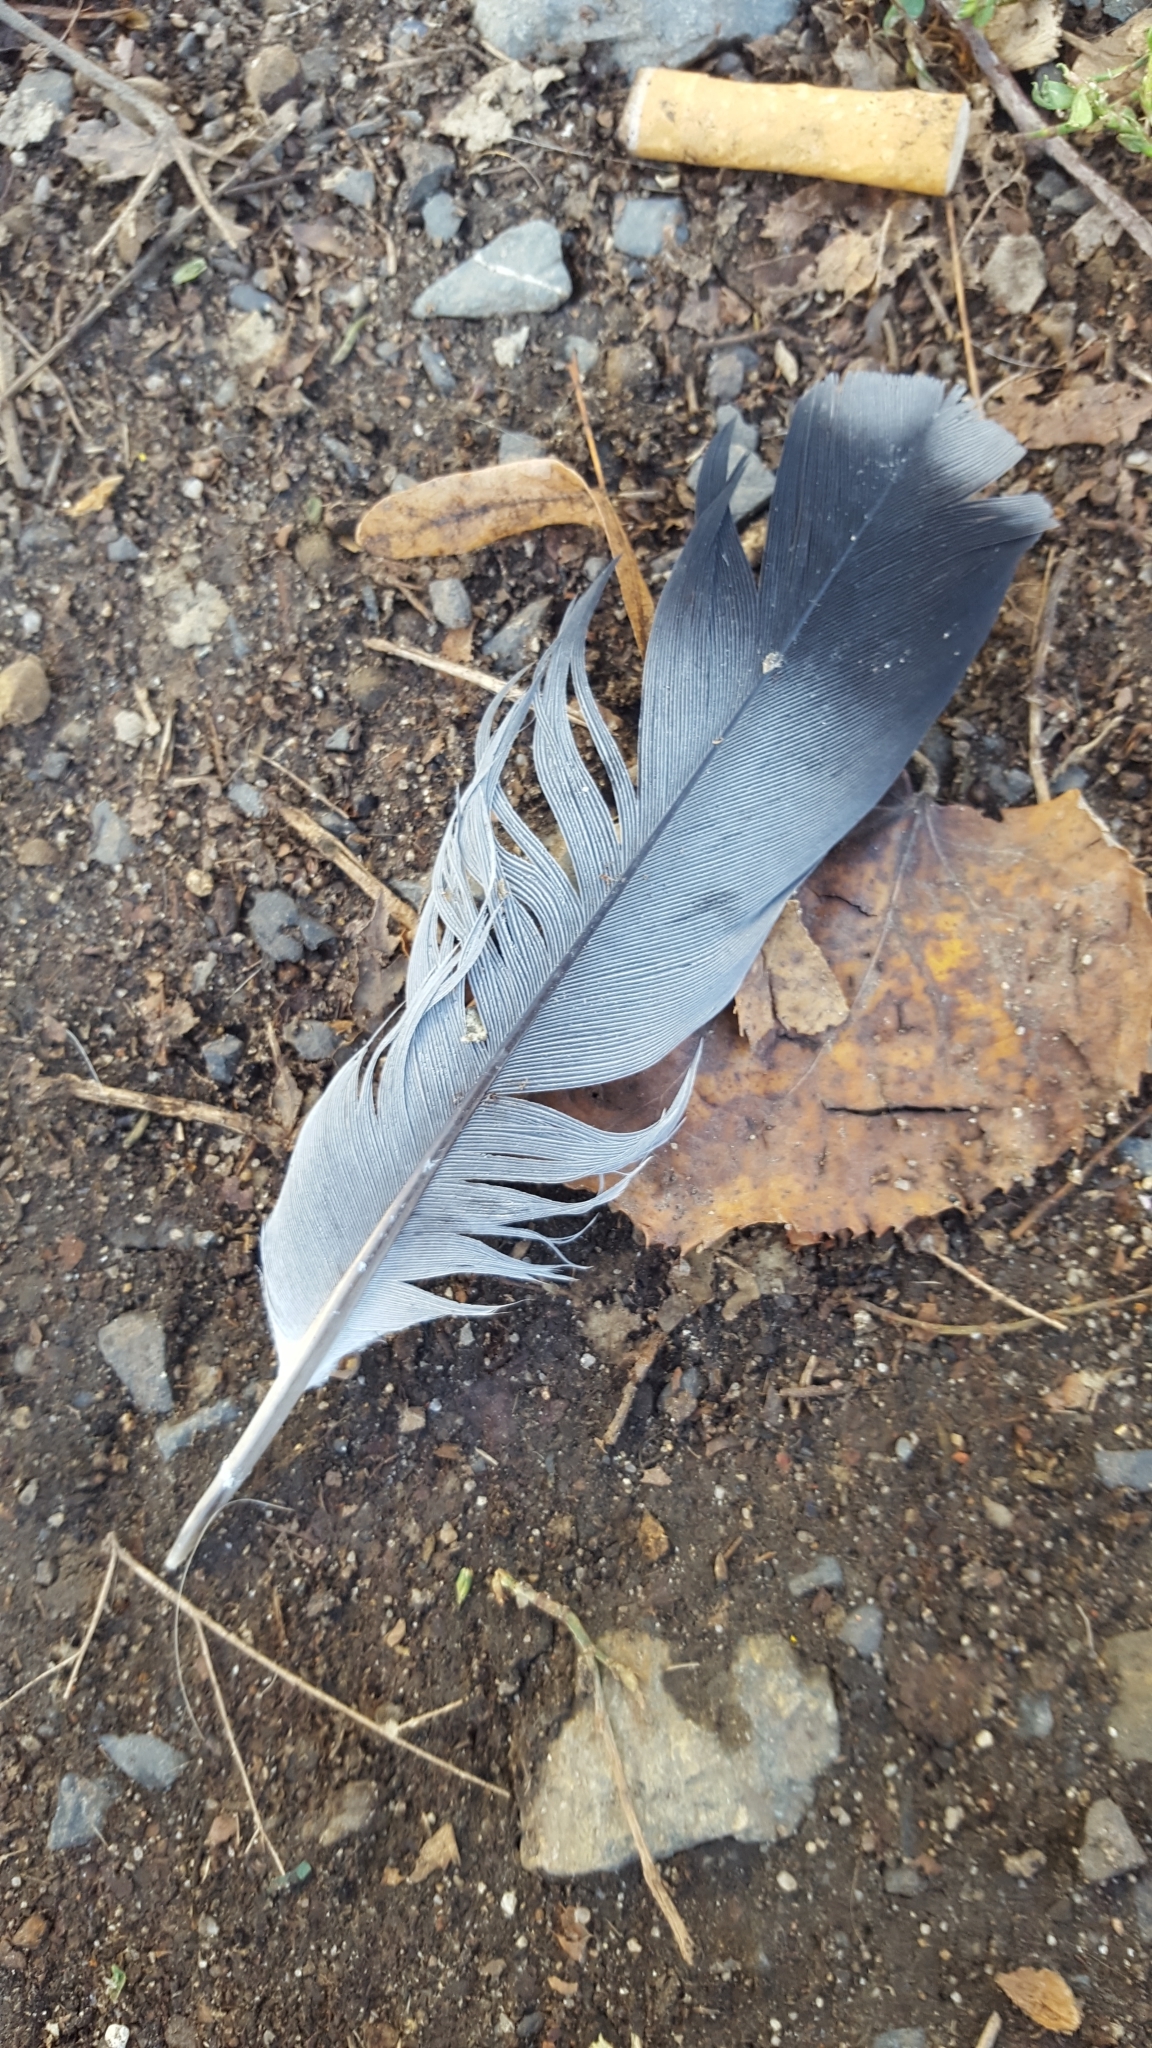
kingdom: Animalia
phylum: Chordata
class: Aves
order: Columbiformes
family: Columbidae
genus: Columba
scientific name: Columba livia
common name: Rock pigeon
